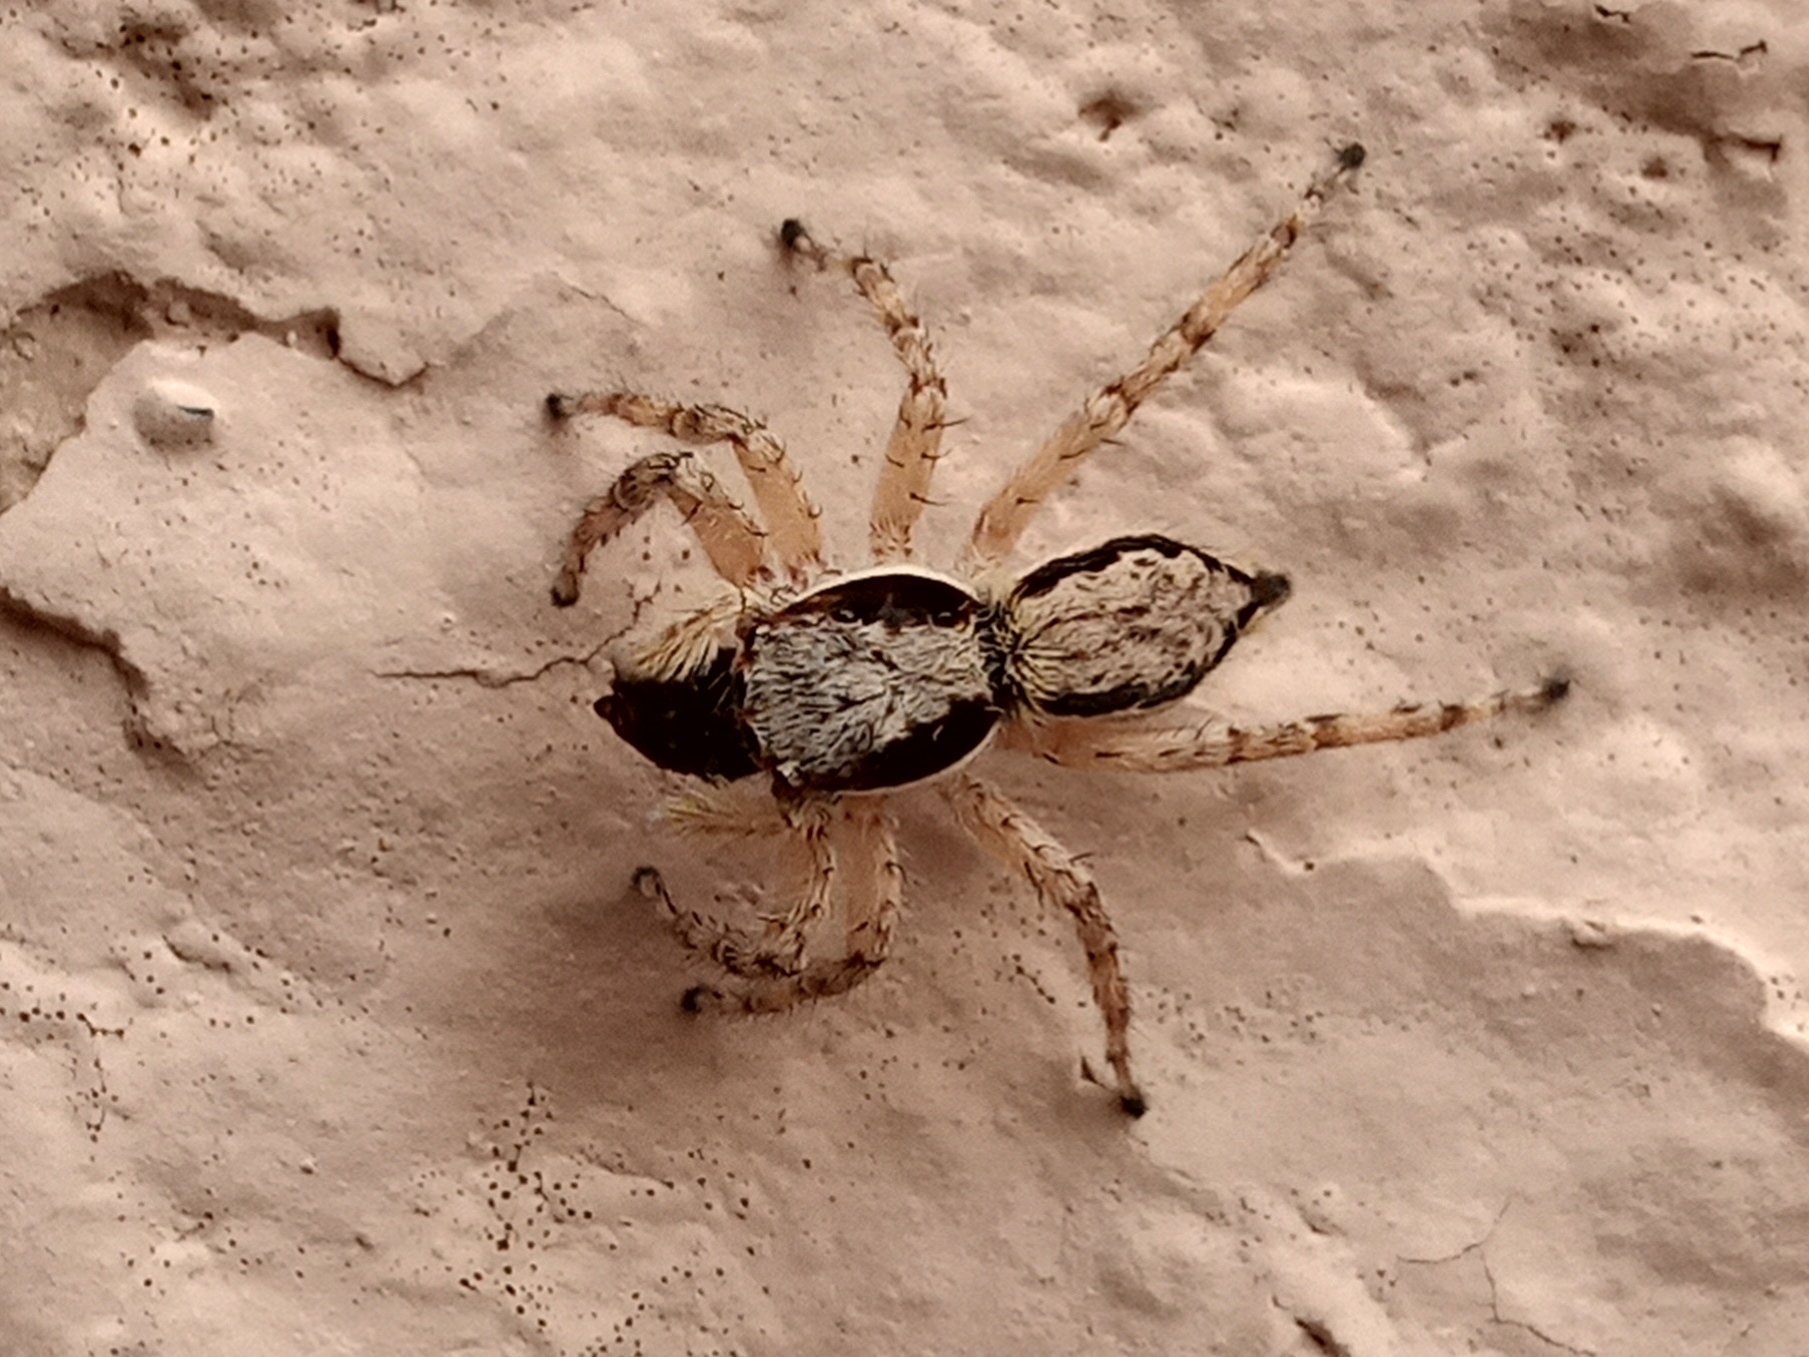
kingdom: Animalia
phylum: Arthropoda
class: Arachnida
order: Araneae
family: Salticidae
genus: Menemerus
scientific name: Menemerus bivittatus
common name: Gray wall jumper
